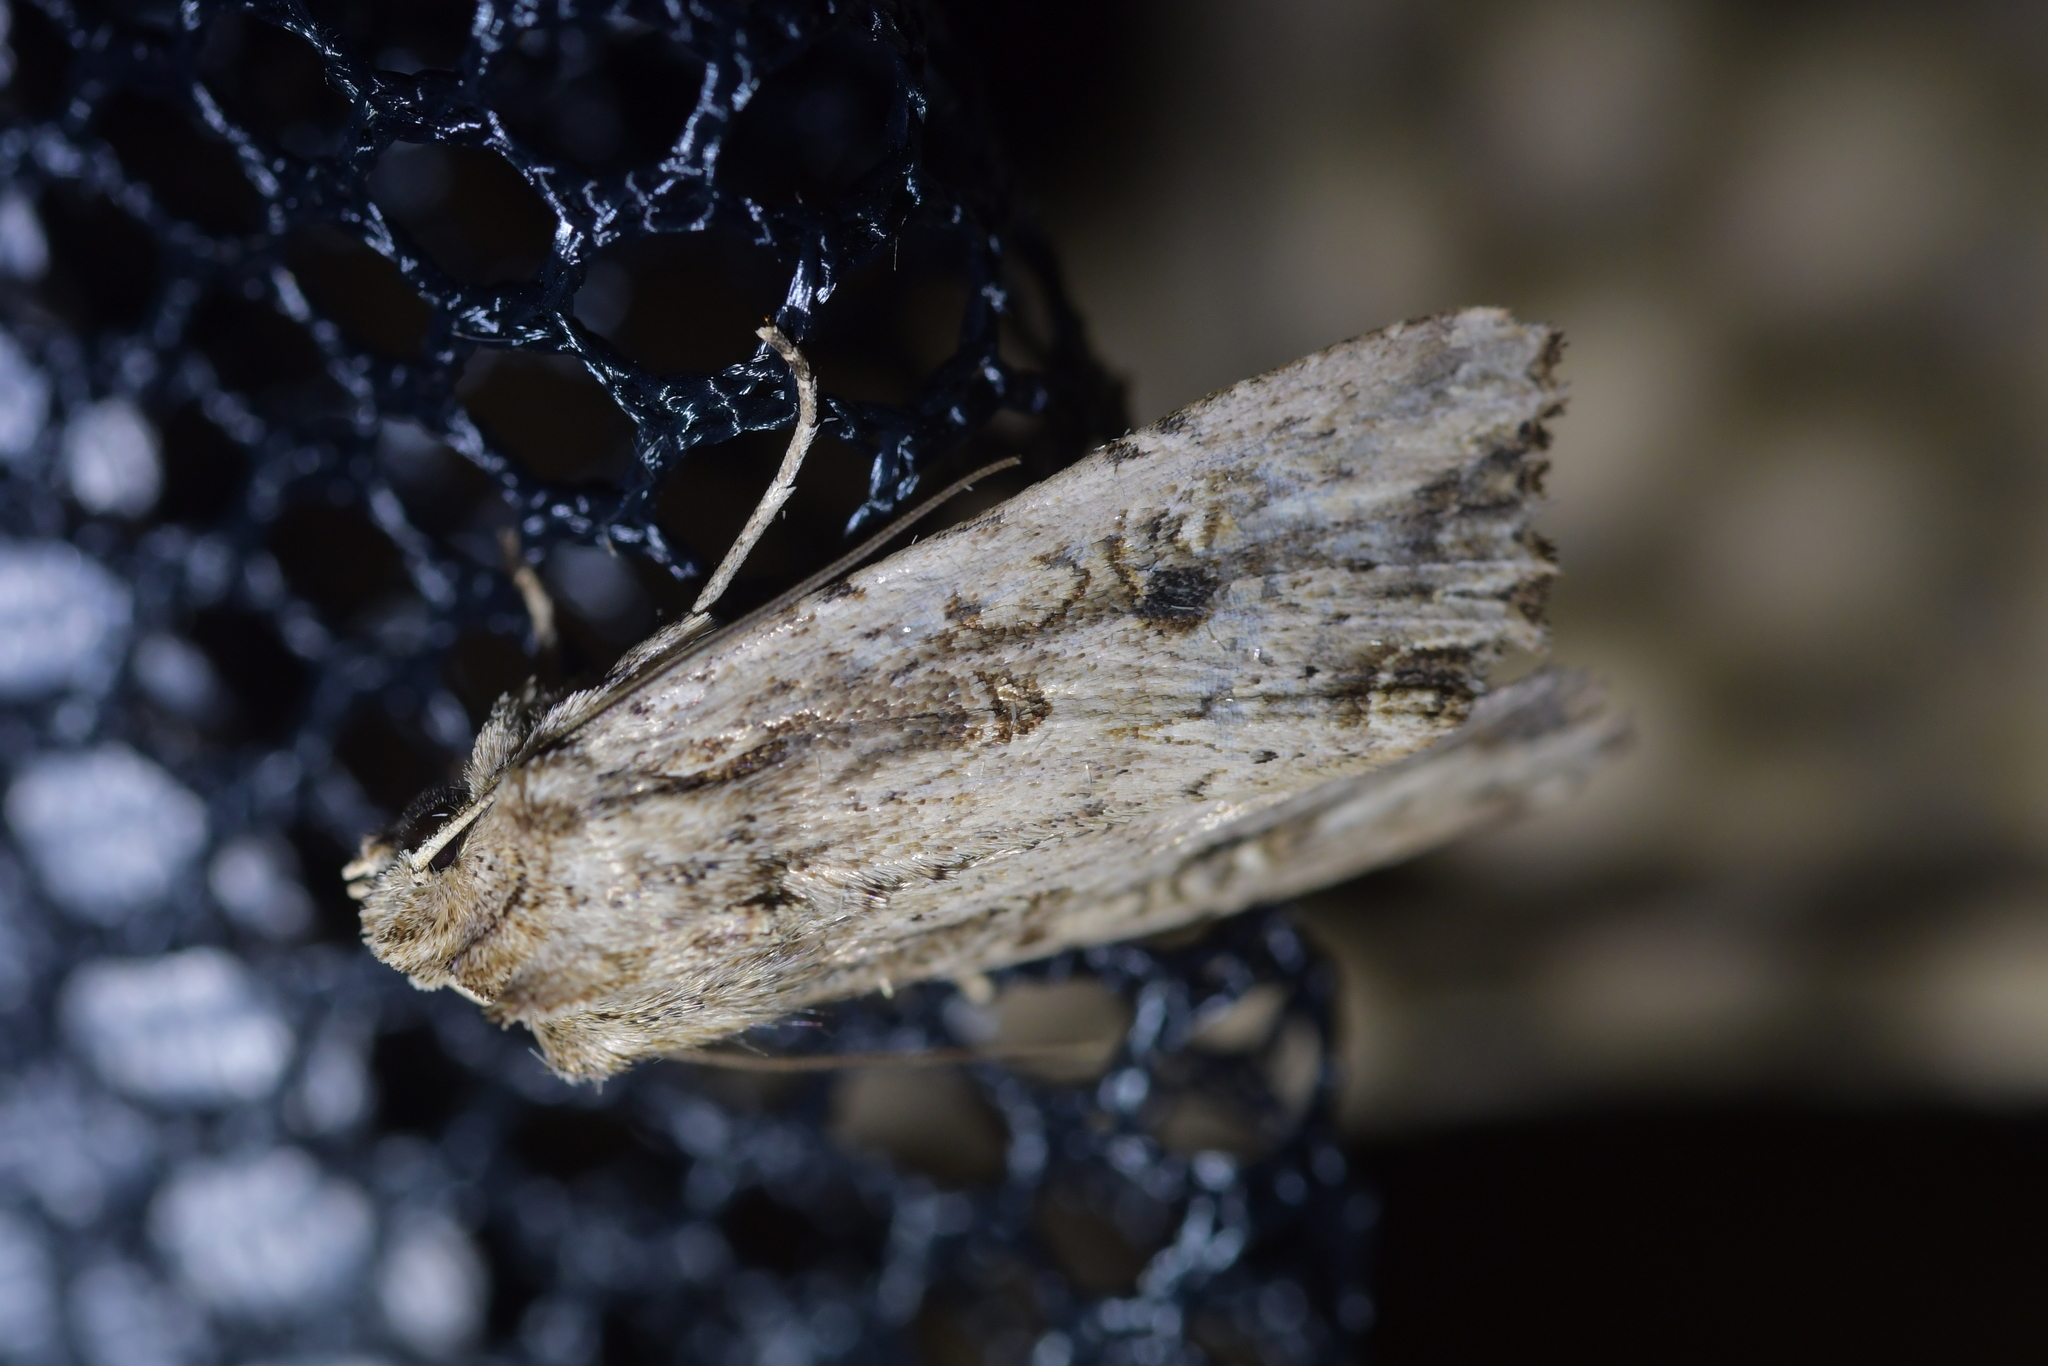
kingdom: Animalia
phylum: Arthropoda
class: Insecta
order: Lepidoptera
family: Noctuidae
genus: Ichneutica
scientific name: Ichneutica lignana
